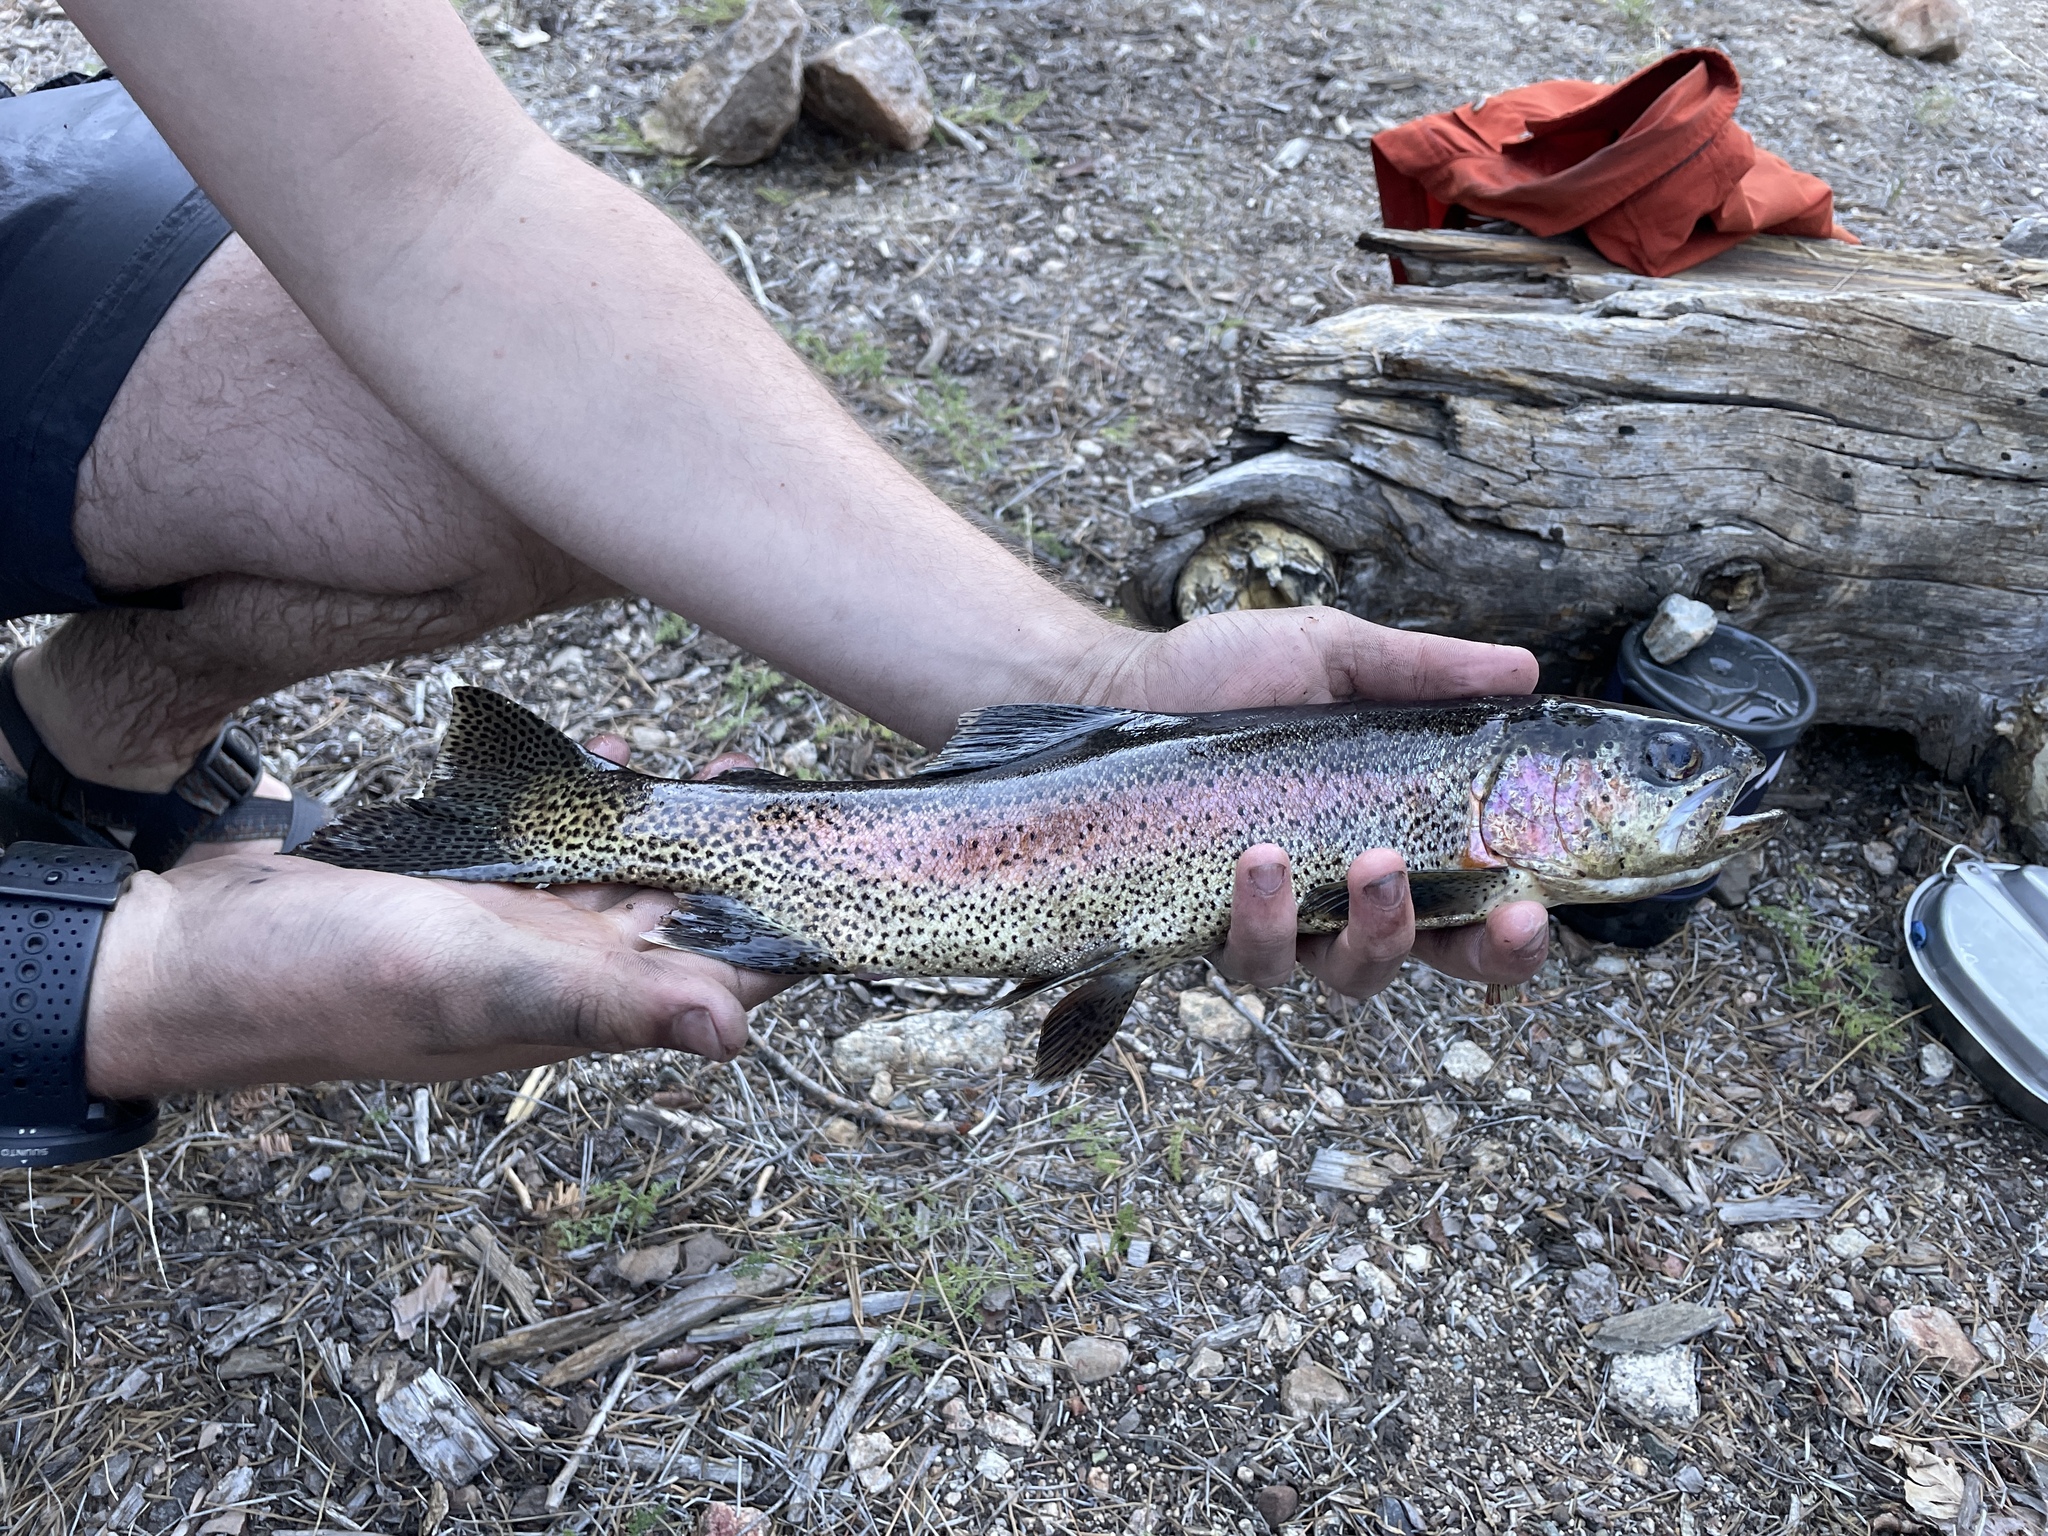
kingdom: Animalia
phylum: Chordata
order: Salmoniformes
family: Salmonidae
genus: Oncorhynchus
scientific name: Oncorhynchus mykiss
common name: Rainbow trout
